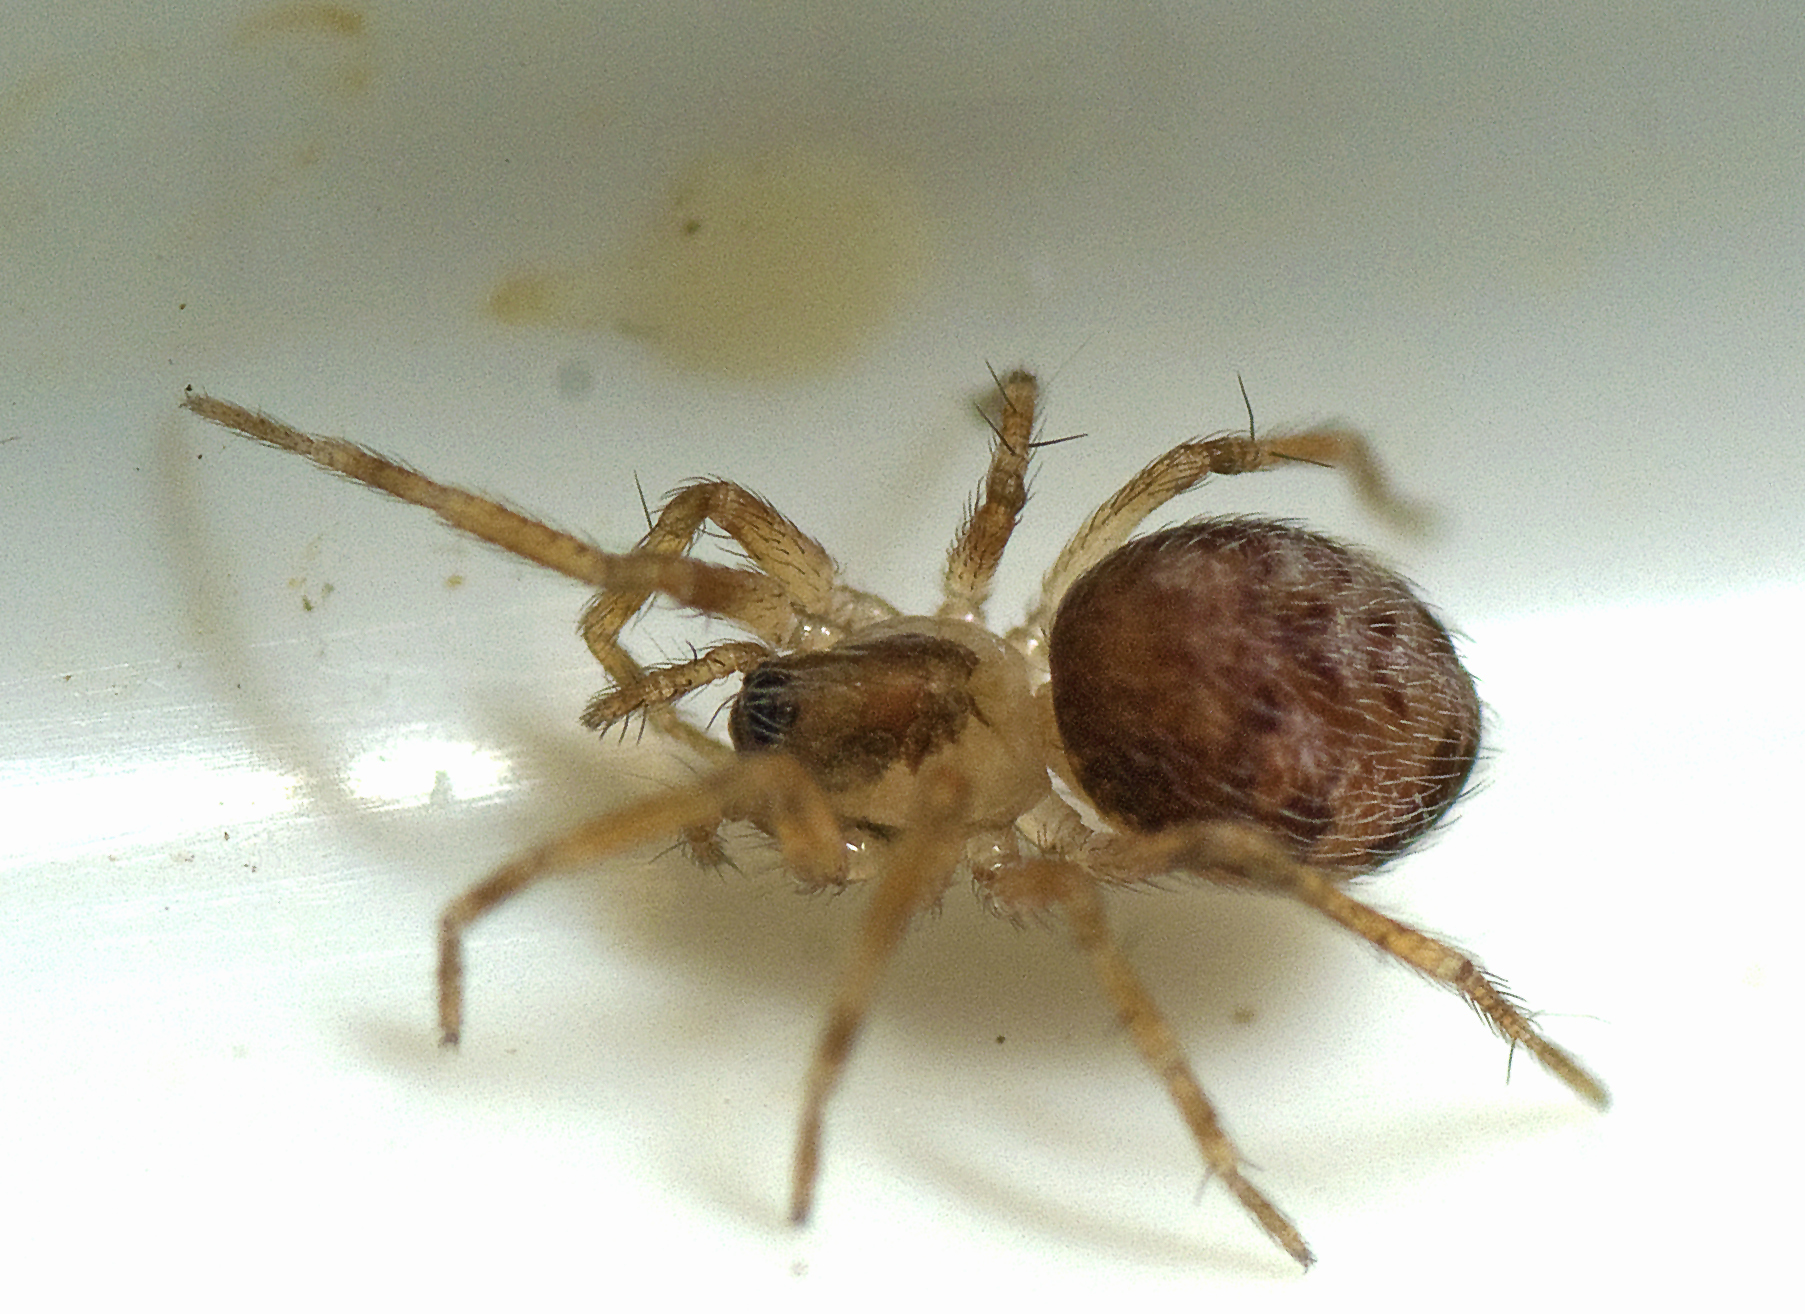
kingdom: Animalia
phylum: Arthropoda
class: Arachnida
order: Araneae
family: Hahniidae
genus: Alistra
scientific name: Alistra
